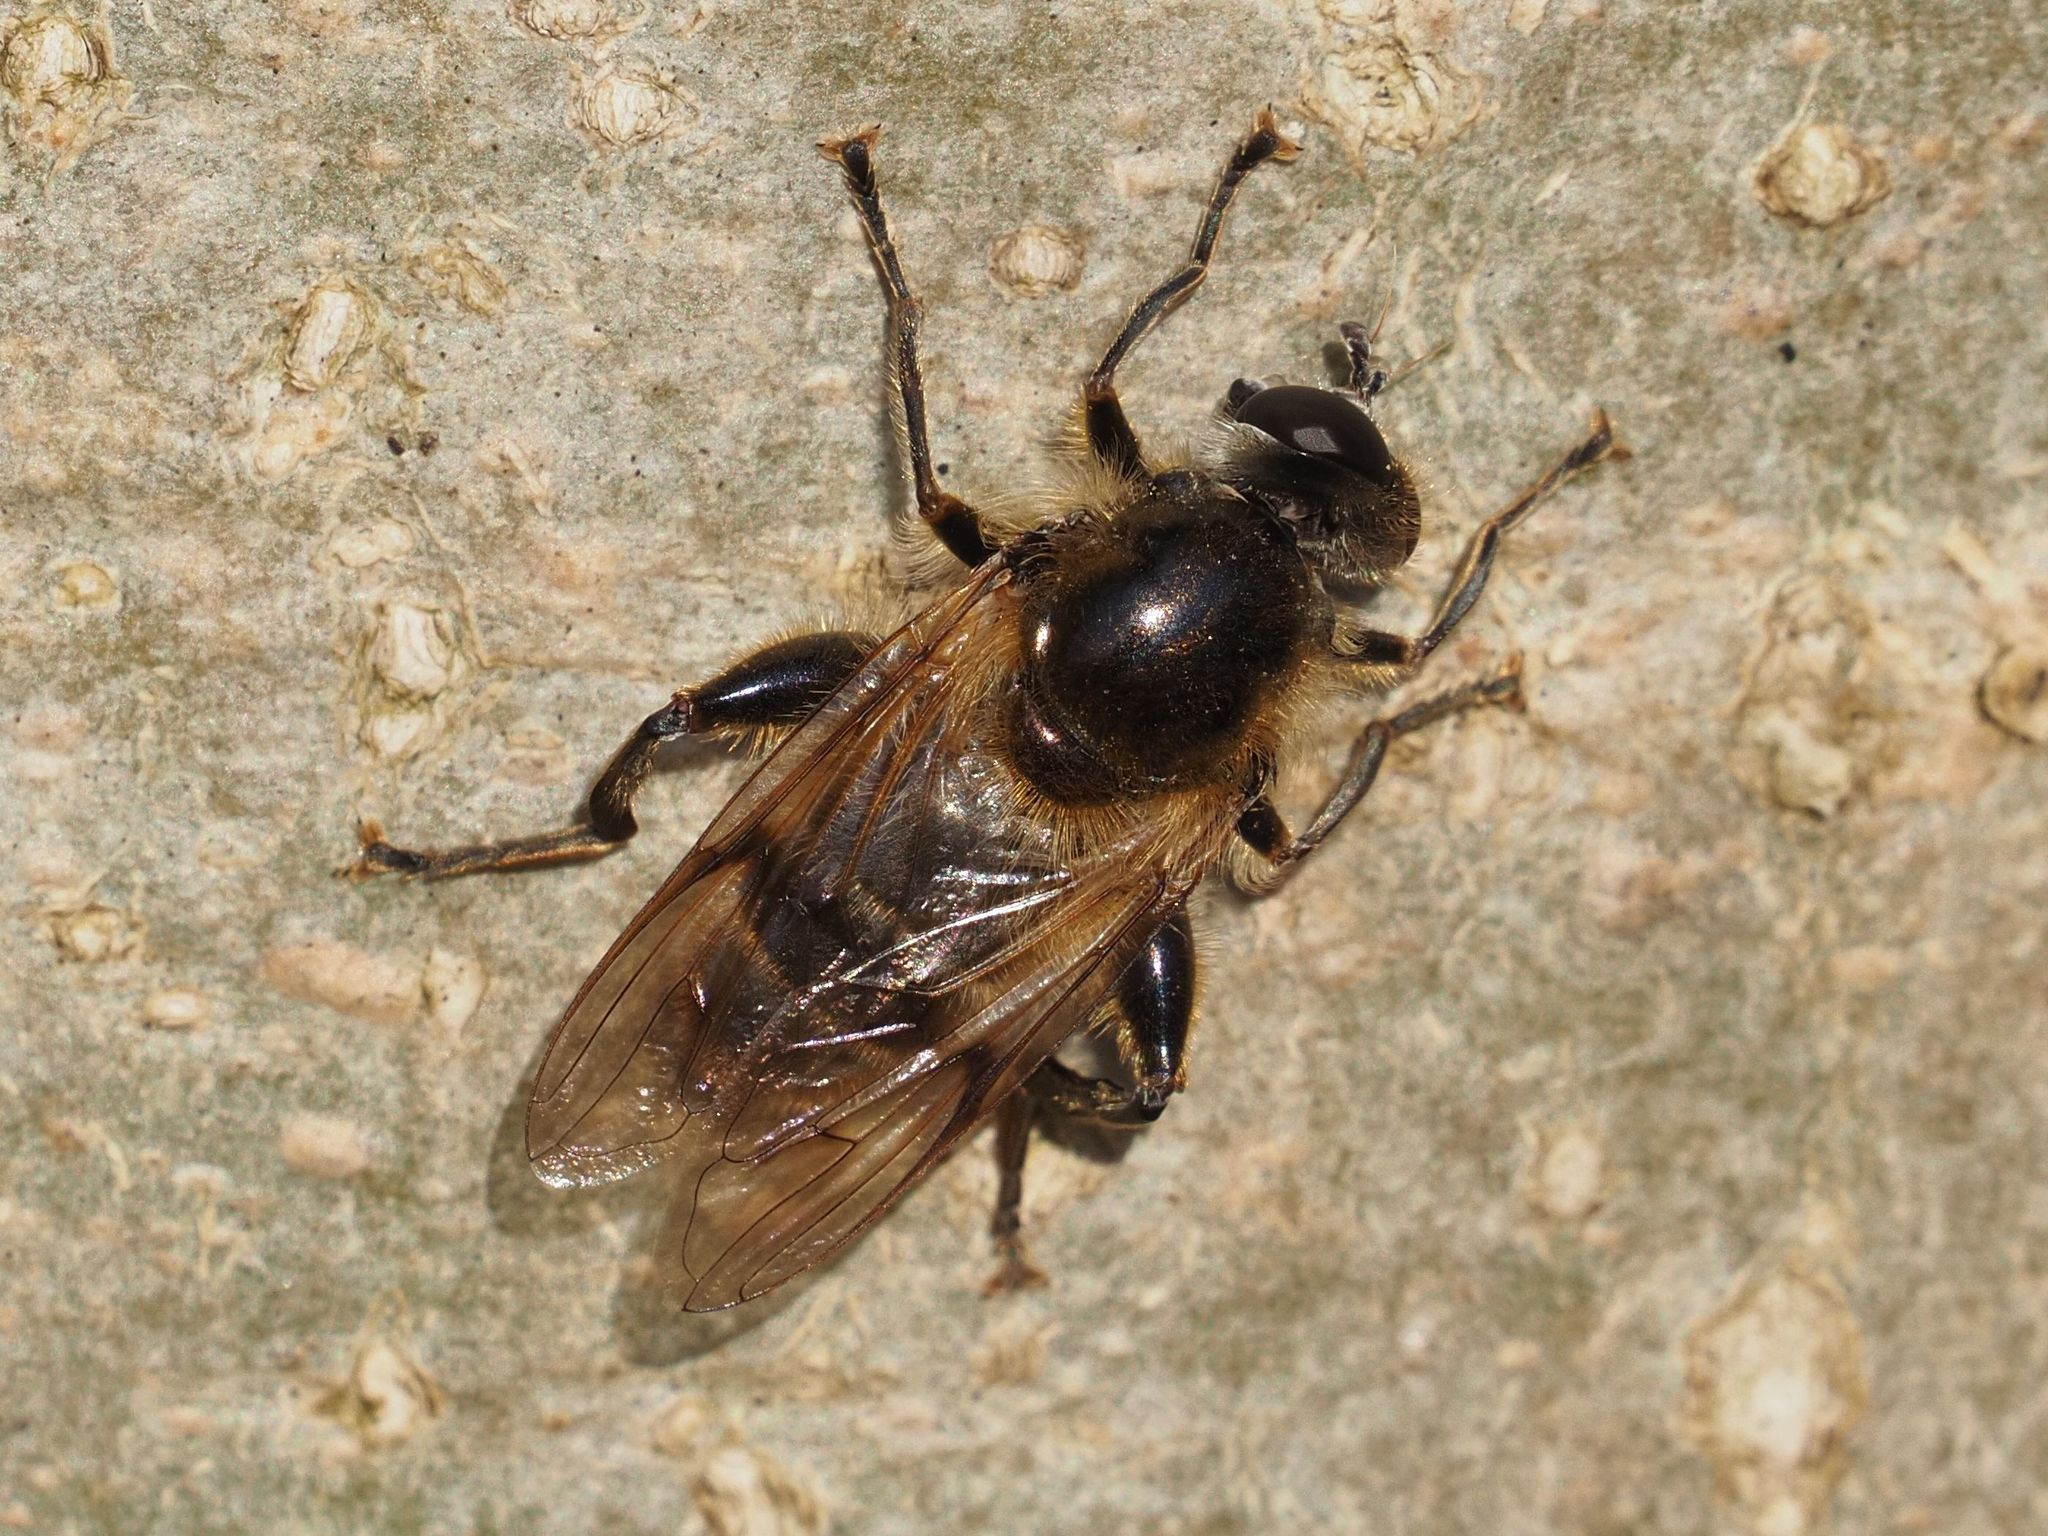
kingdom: Animalia
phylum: Arthropoda
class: Insecta
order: Diptera
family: Syrphidae
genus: Brachypalpus
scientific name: Brachypalpus valgus
